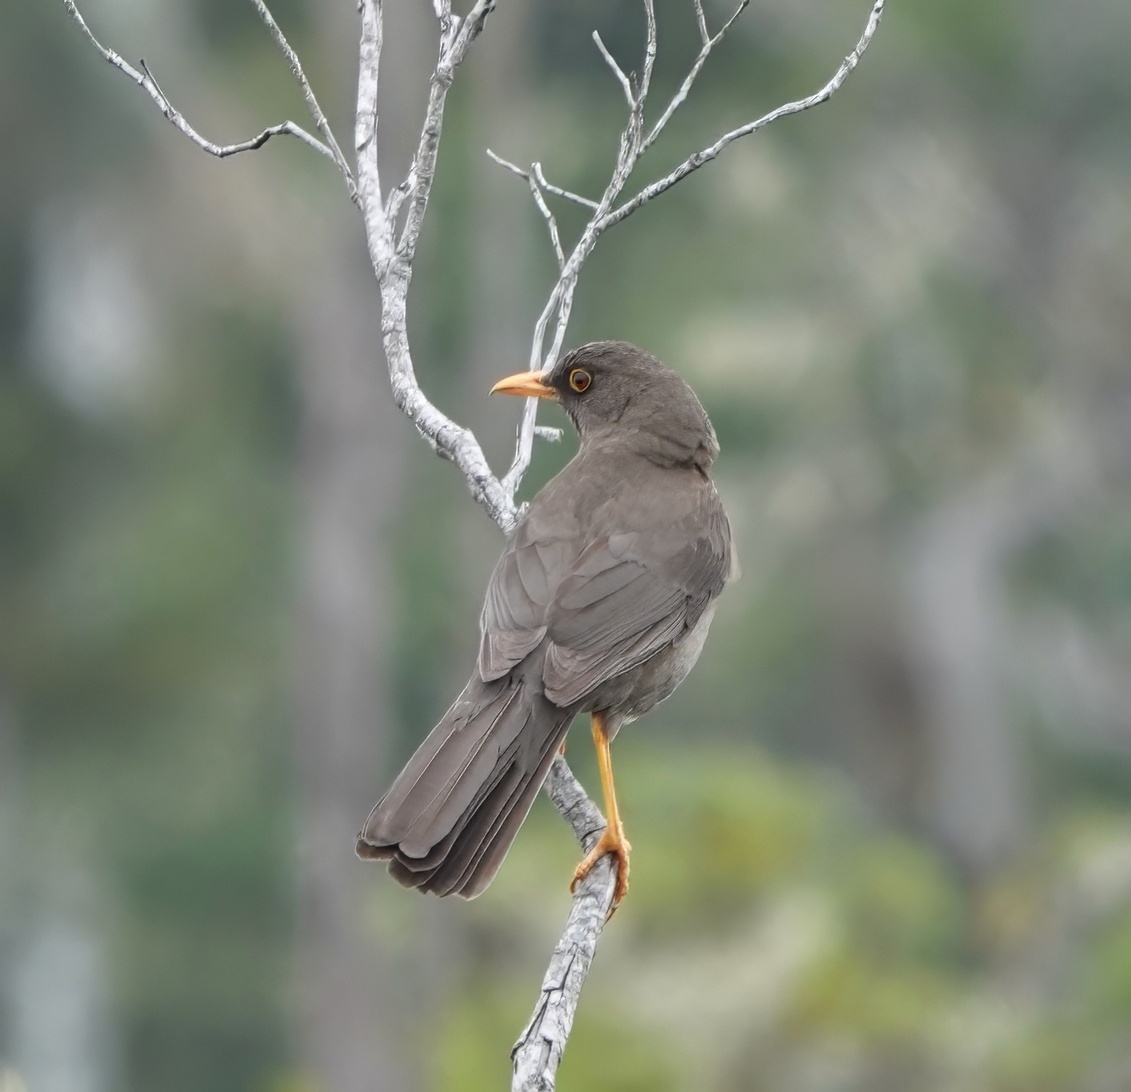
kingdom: Animalia
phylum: Chordata
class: Aves
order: Passeriformes
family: Turdidae
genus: Turdus
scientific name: Turdus fuscater
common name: Great thrush
